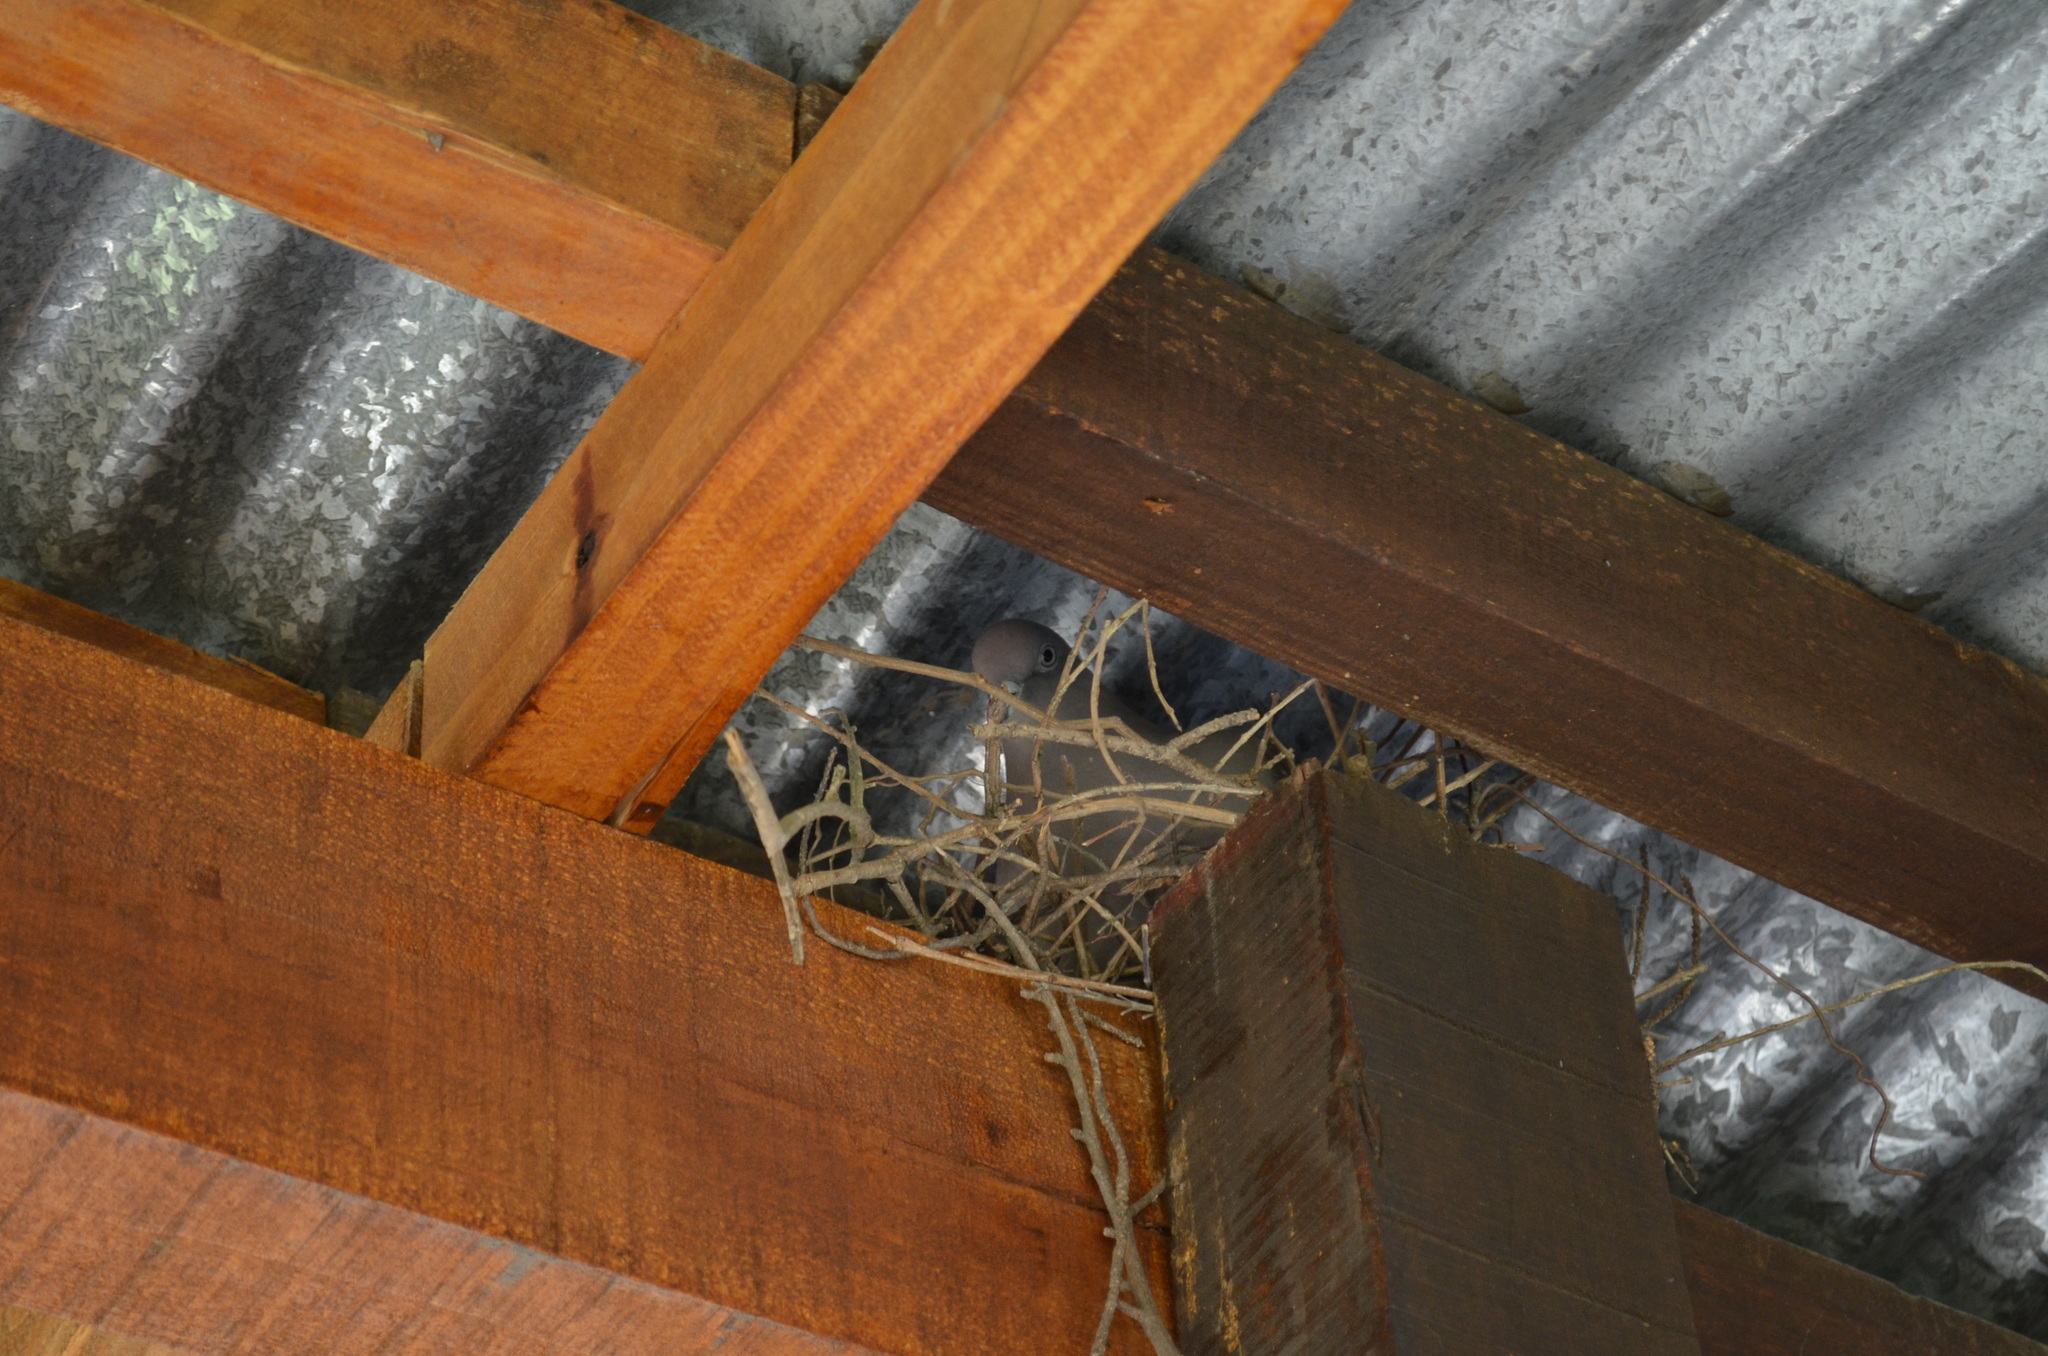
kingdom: Animalia
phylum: Chordata
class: Aves
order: Columbiformes
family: Columbidae
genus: Patagioenas
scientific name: Patagioenas maculosa
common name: Spot-winged pigeon
